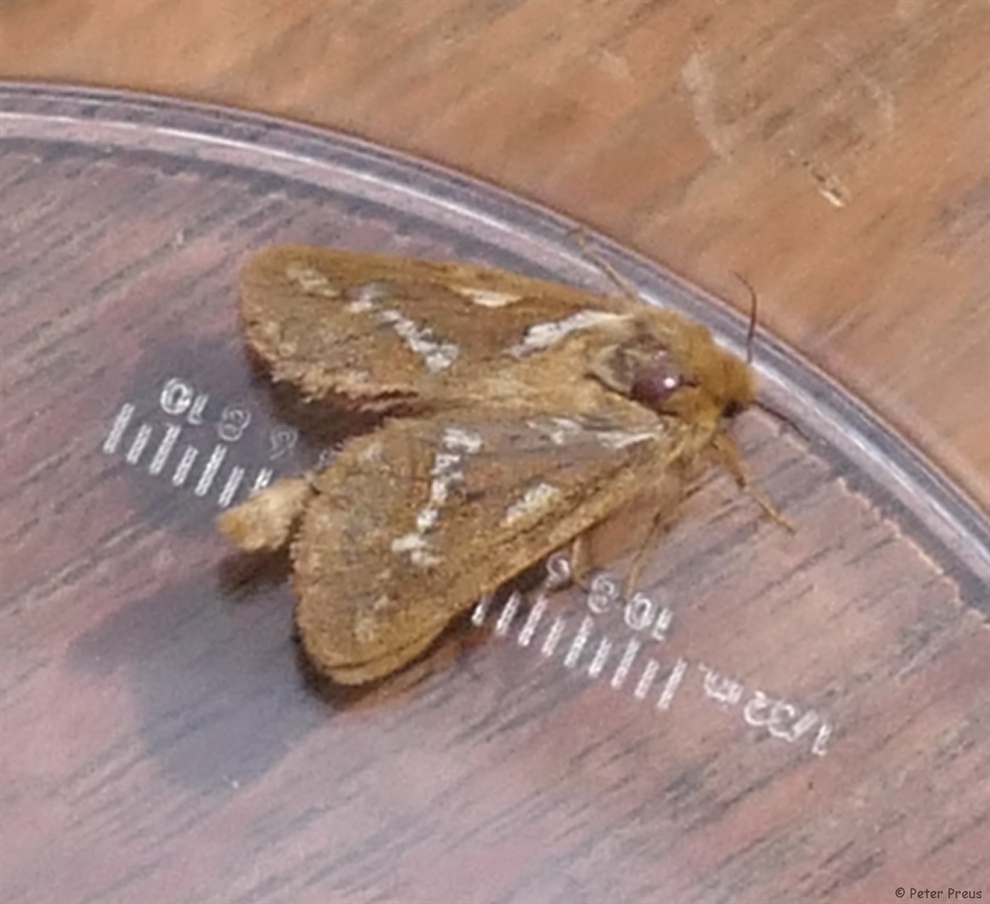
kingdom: Animalia
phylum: Arthropoda
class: Insecta
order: Lepidoptera
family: Hepialidae
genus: Korscheltellus
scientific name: Korscheltellus lupulina
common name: Common swift
